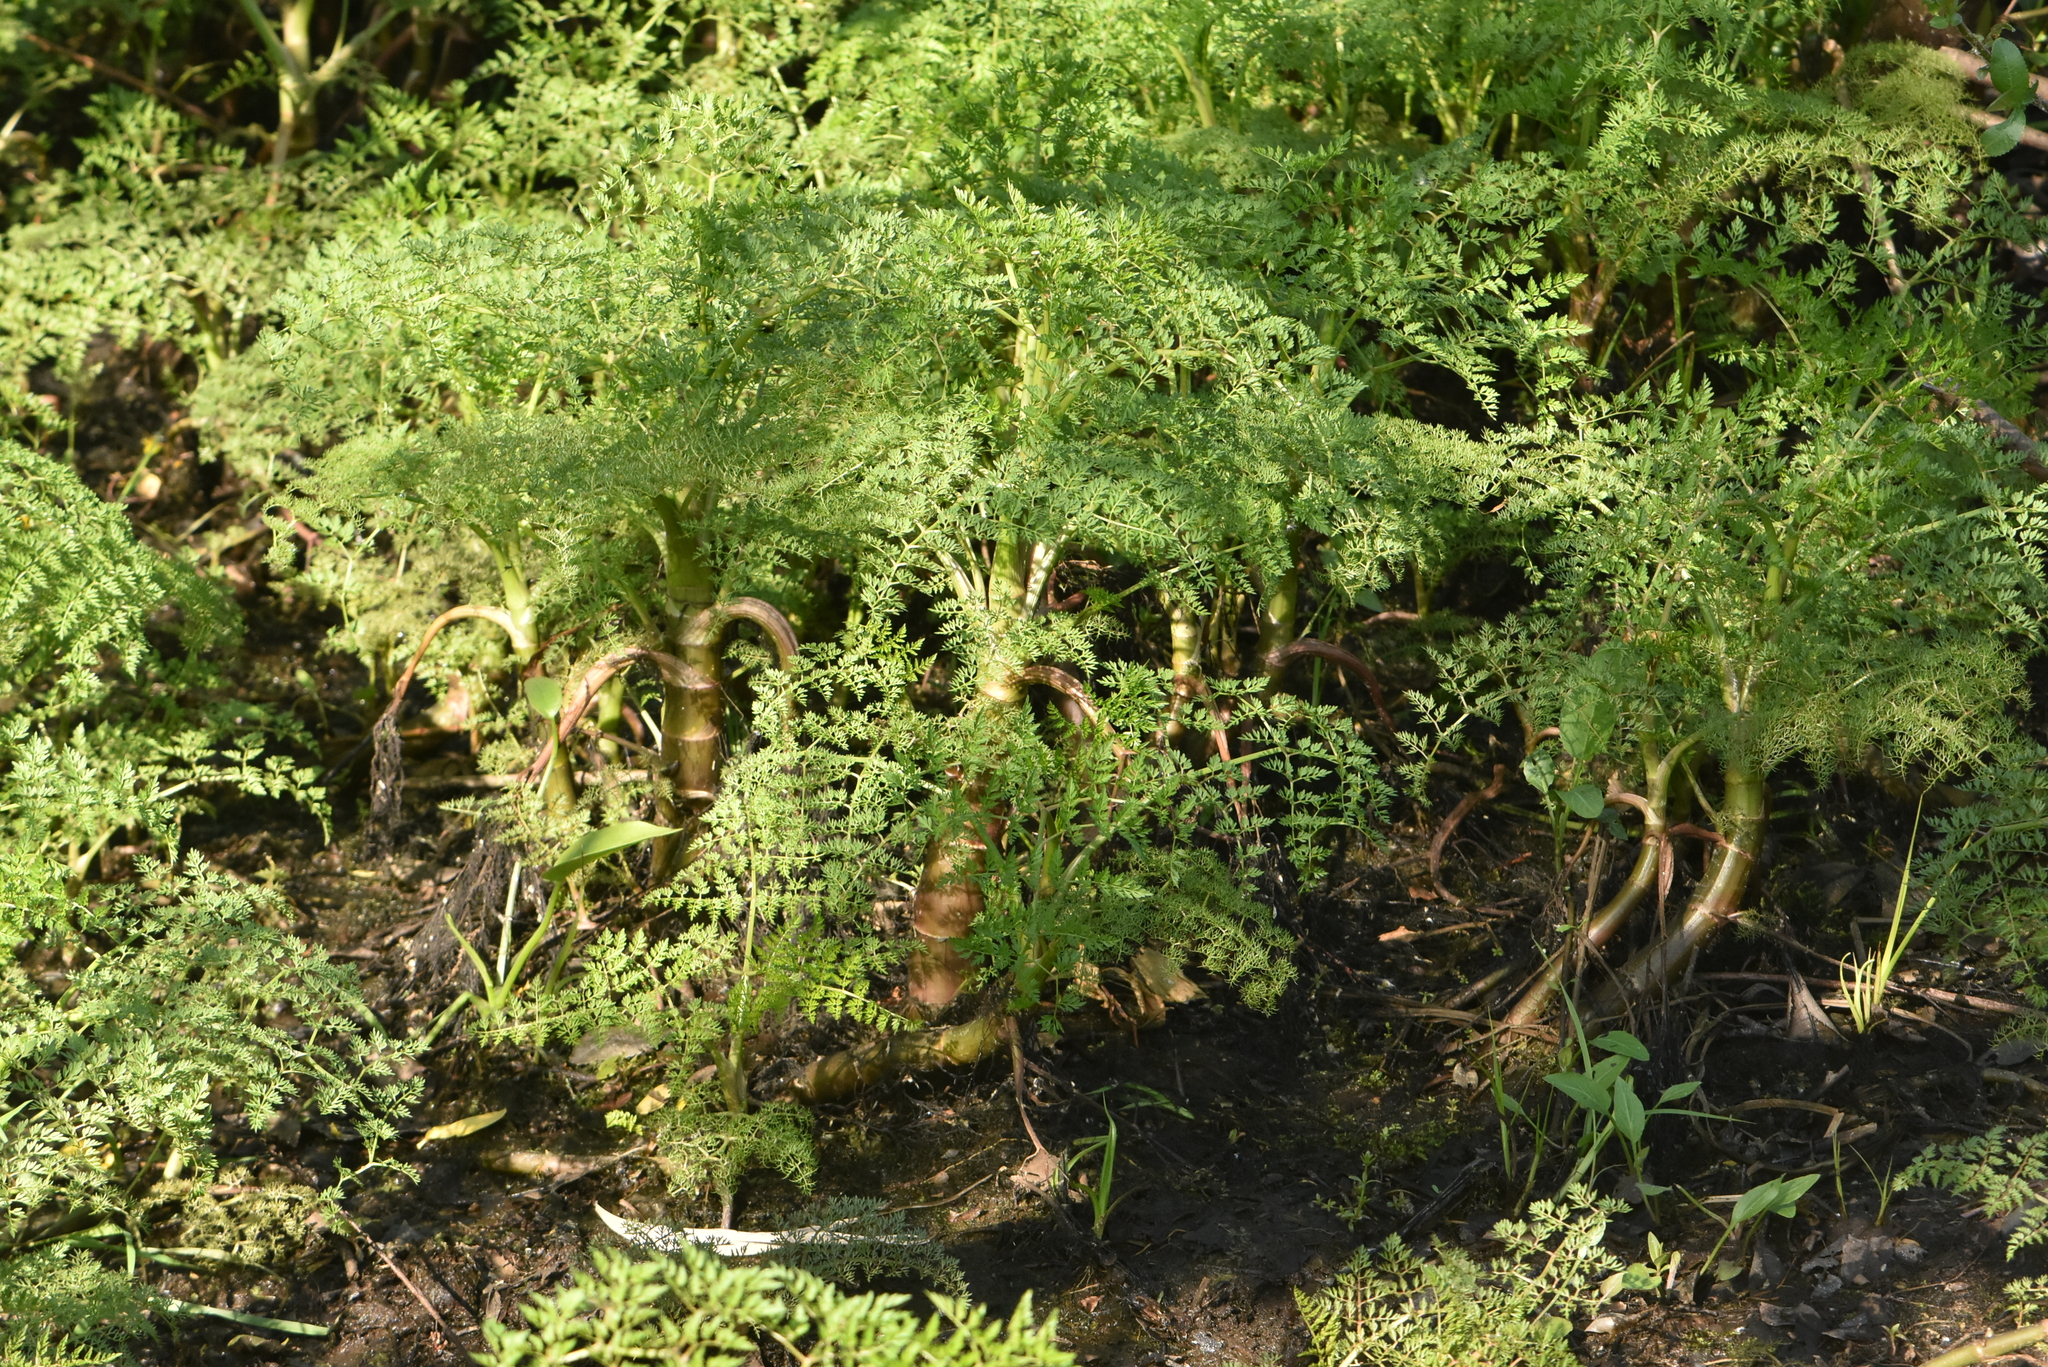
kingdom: Plantae
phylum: Tracheophyta
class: Magnoliopsida
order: Apiales
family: Apiaceae
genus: Oenanthe
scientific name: Oenanthe aquatica
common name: Fine-leaved water-dropwort
